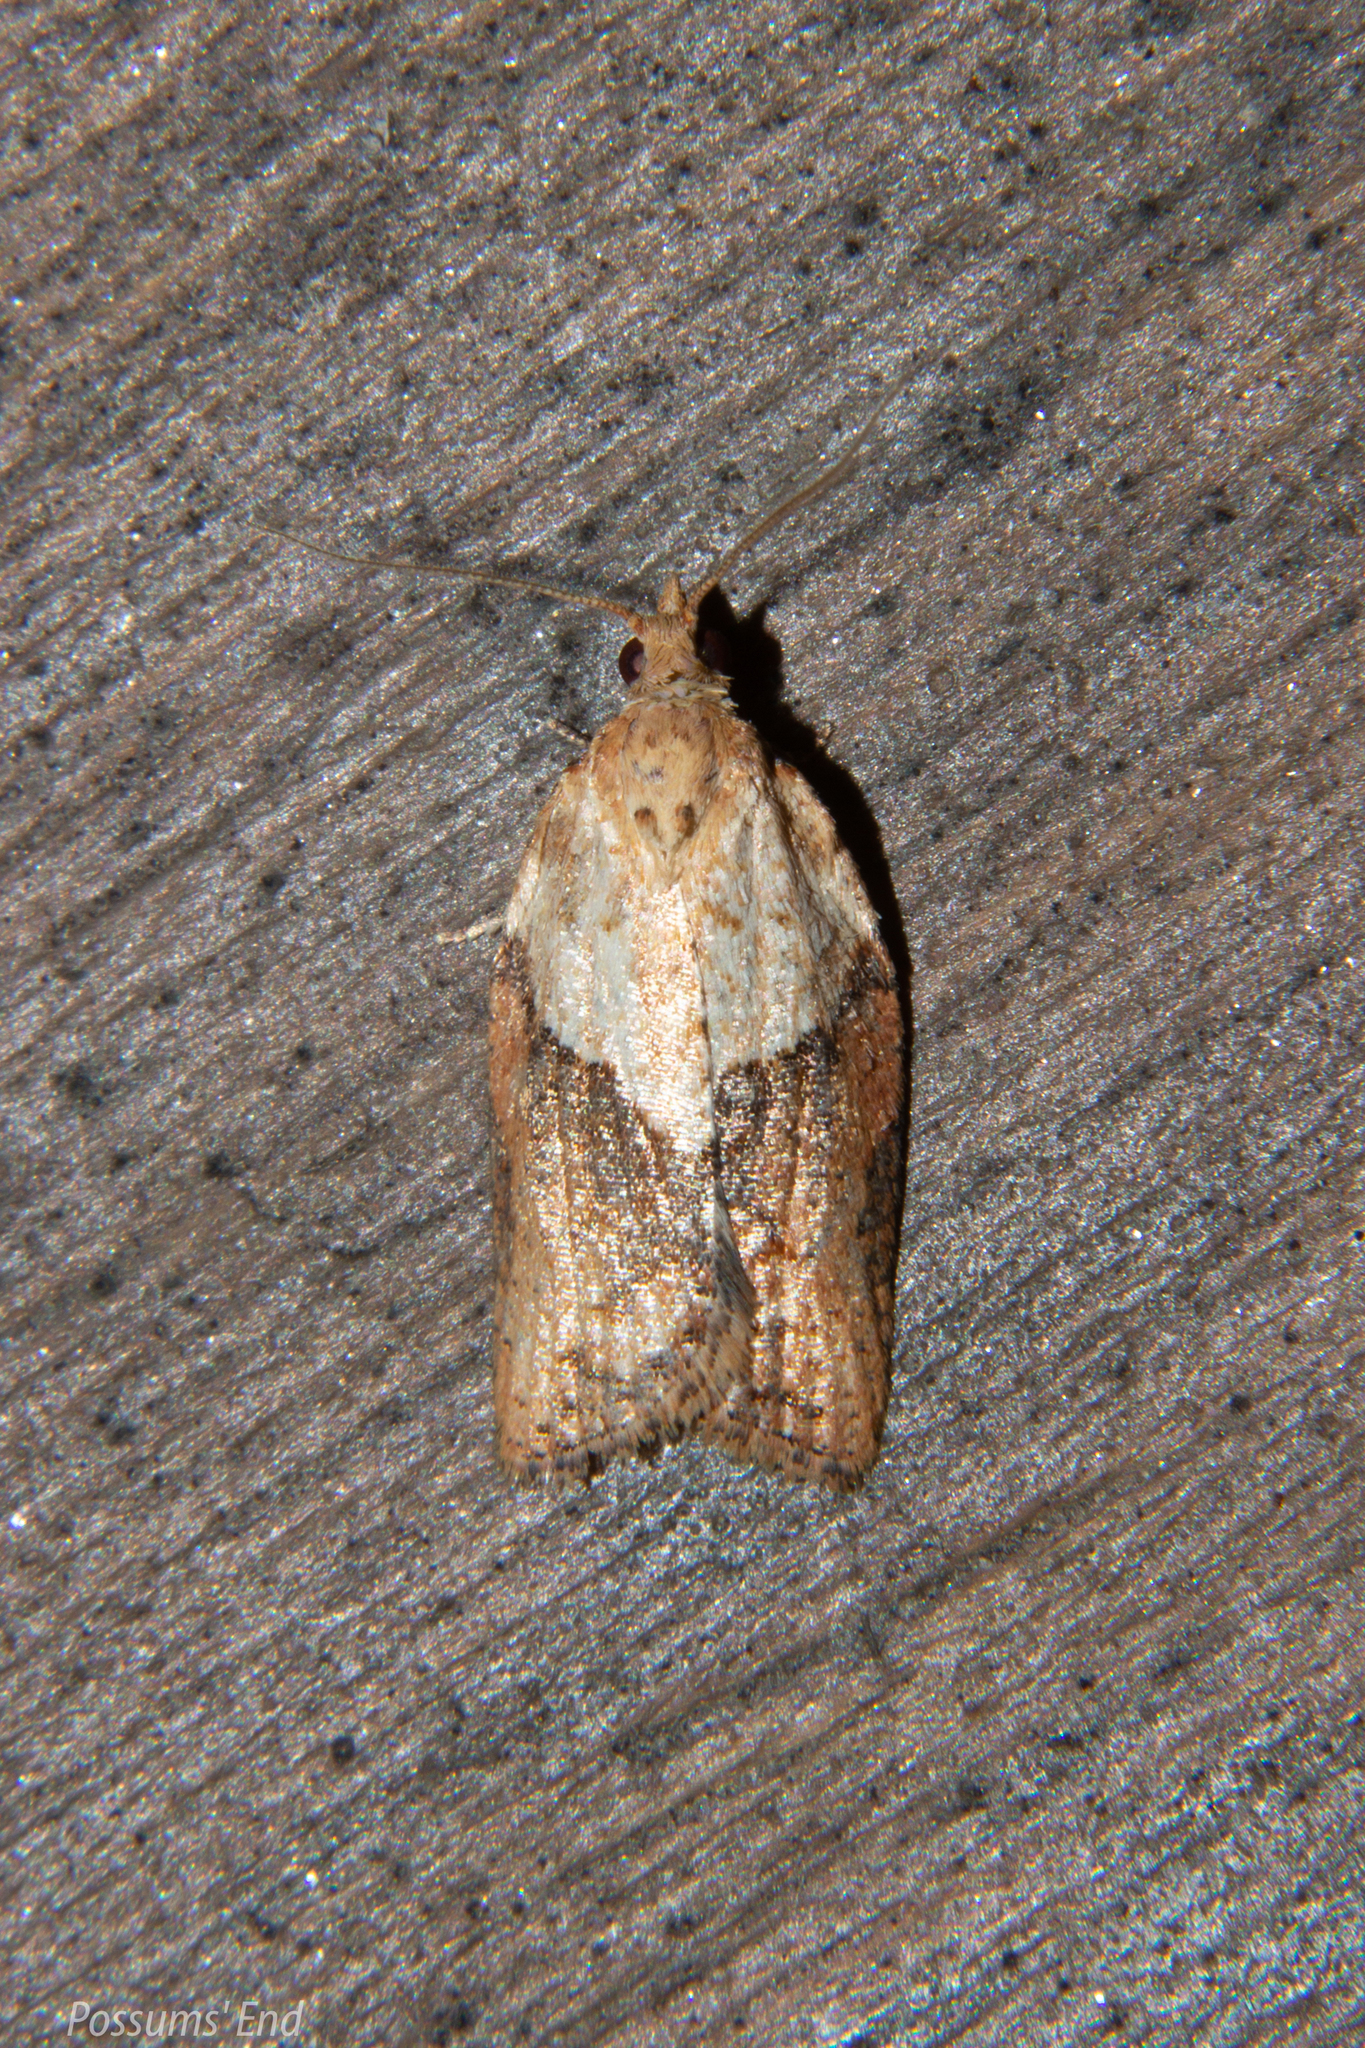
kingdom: Animalia
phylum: Arthropoda
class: Insecta
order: Lepidoptera
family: Tortricidae
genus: Epiphyas
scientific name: Epiphyas postvittana
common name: Light brown apple moth
